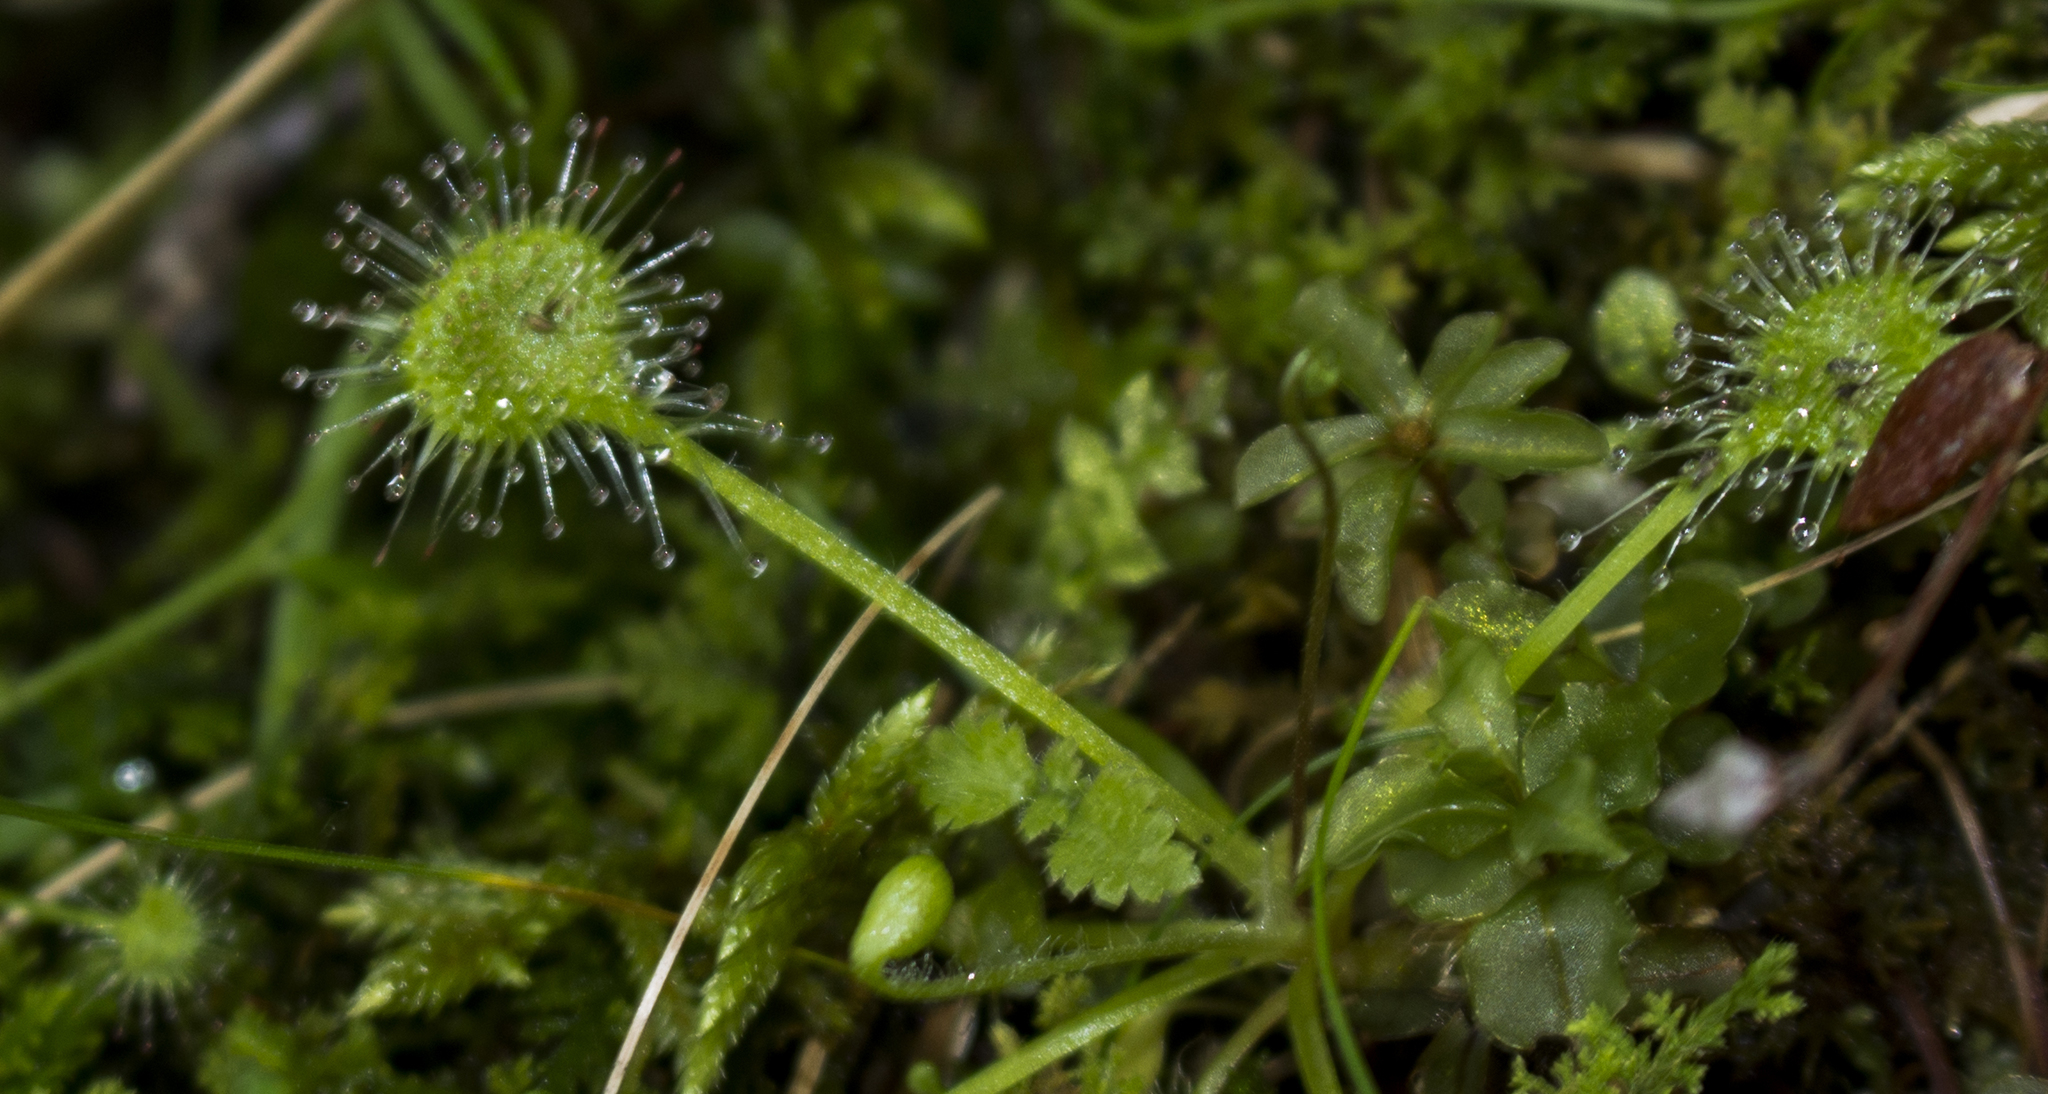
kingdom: Plantae
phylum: Tracheophyta
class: Magnoliopsida
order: Caryophyllales
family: Droseraceae
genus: Drosera
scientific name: Drosera rotundifolia
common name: Round-leaved sundew
